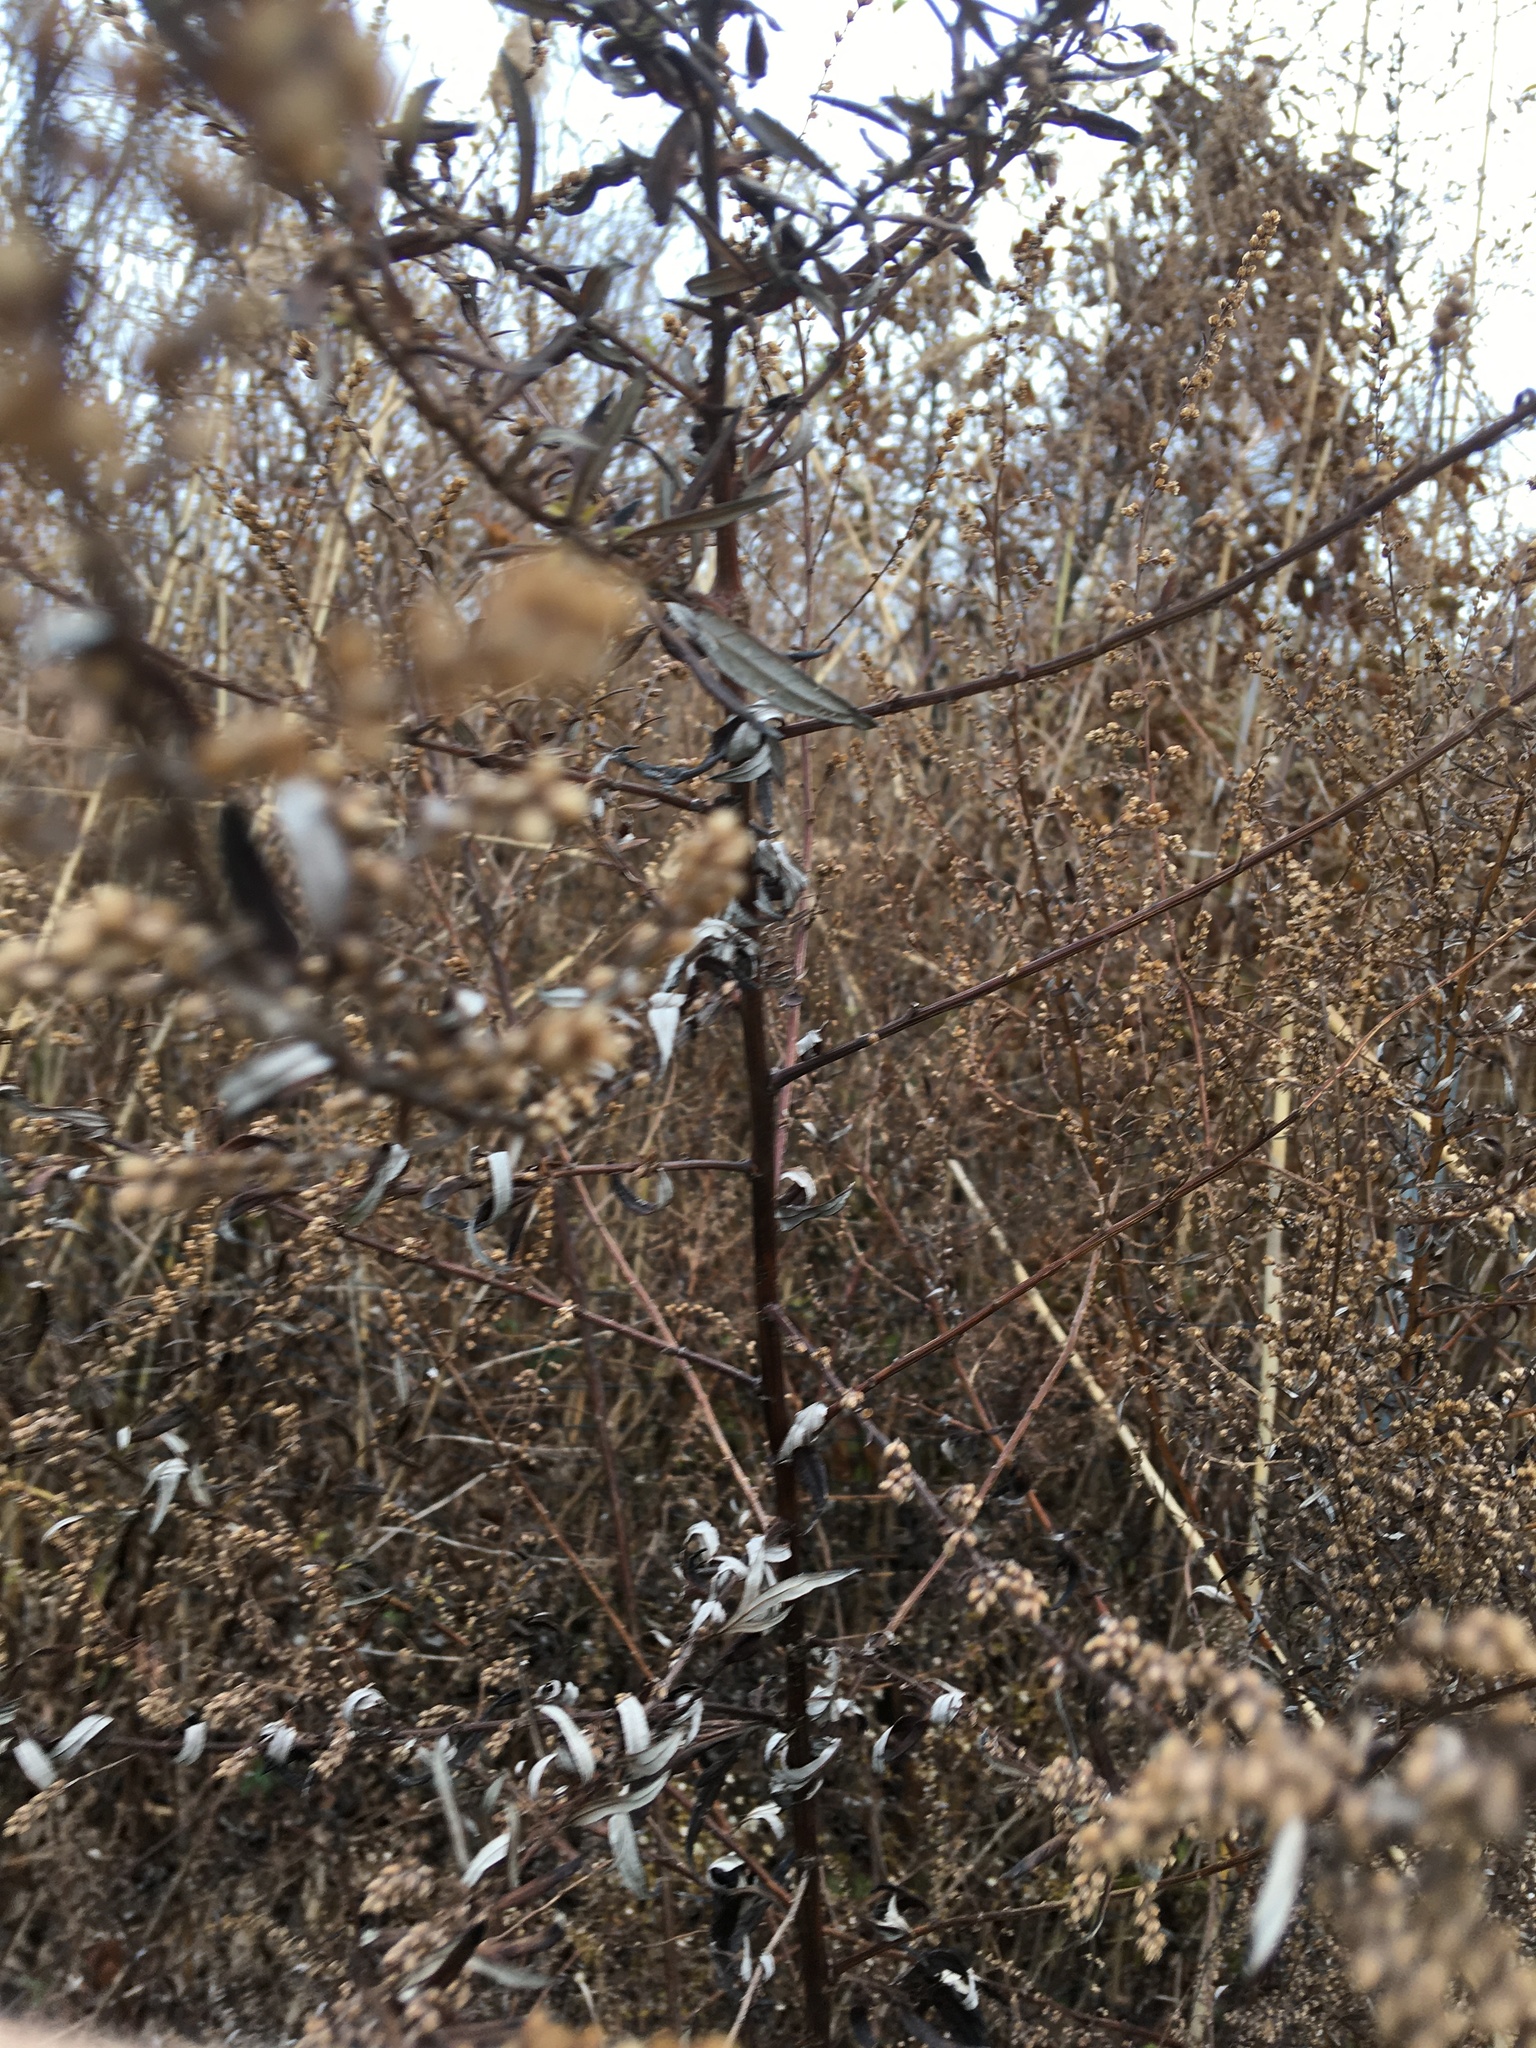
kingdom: Plantae
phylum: Tracheophyta
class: Magnoliopsida
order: Asterales
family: Asteraceae
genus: Artemisia
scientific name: Artemisia vulgaris
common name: Mugwort
